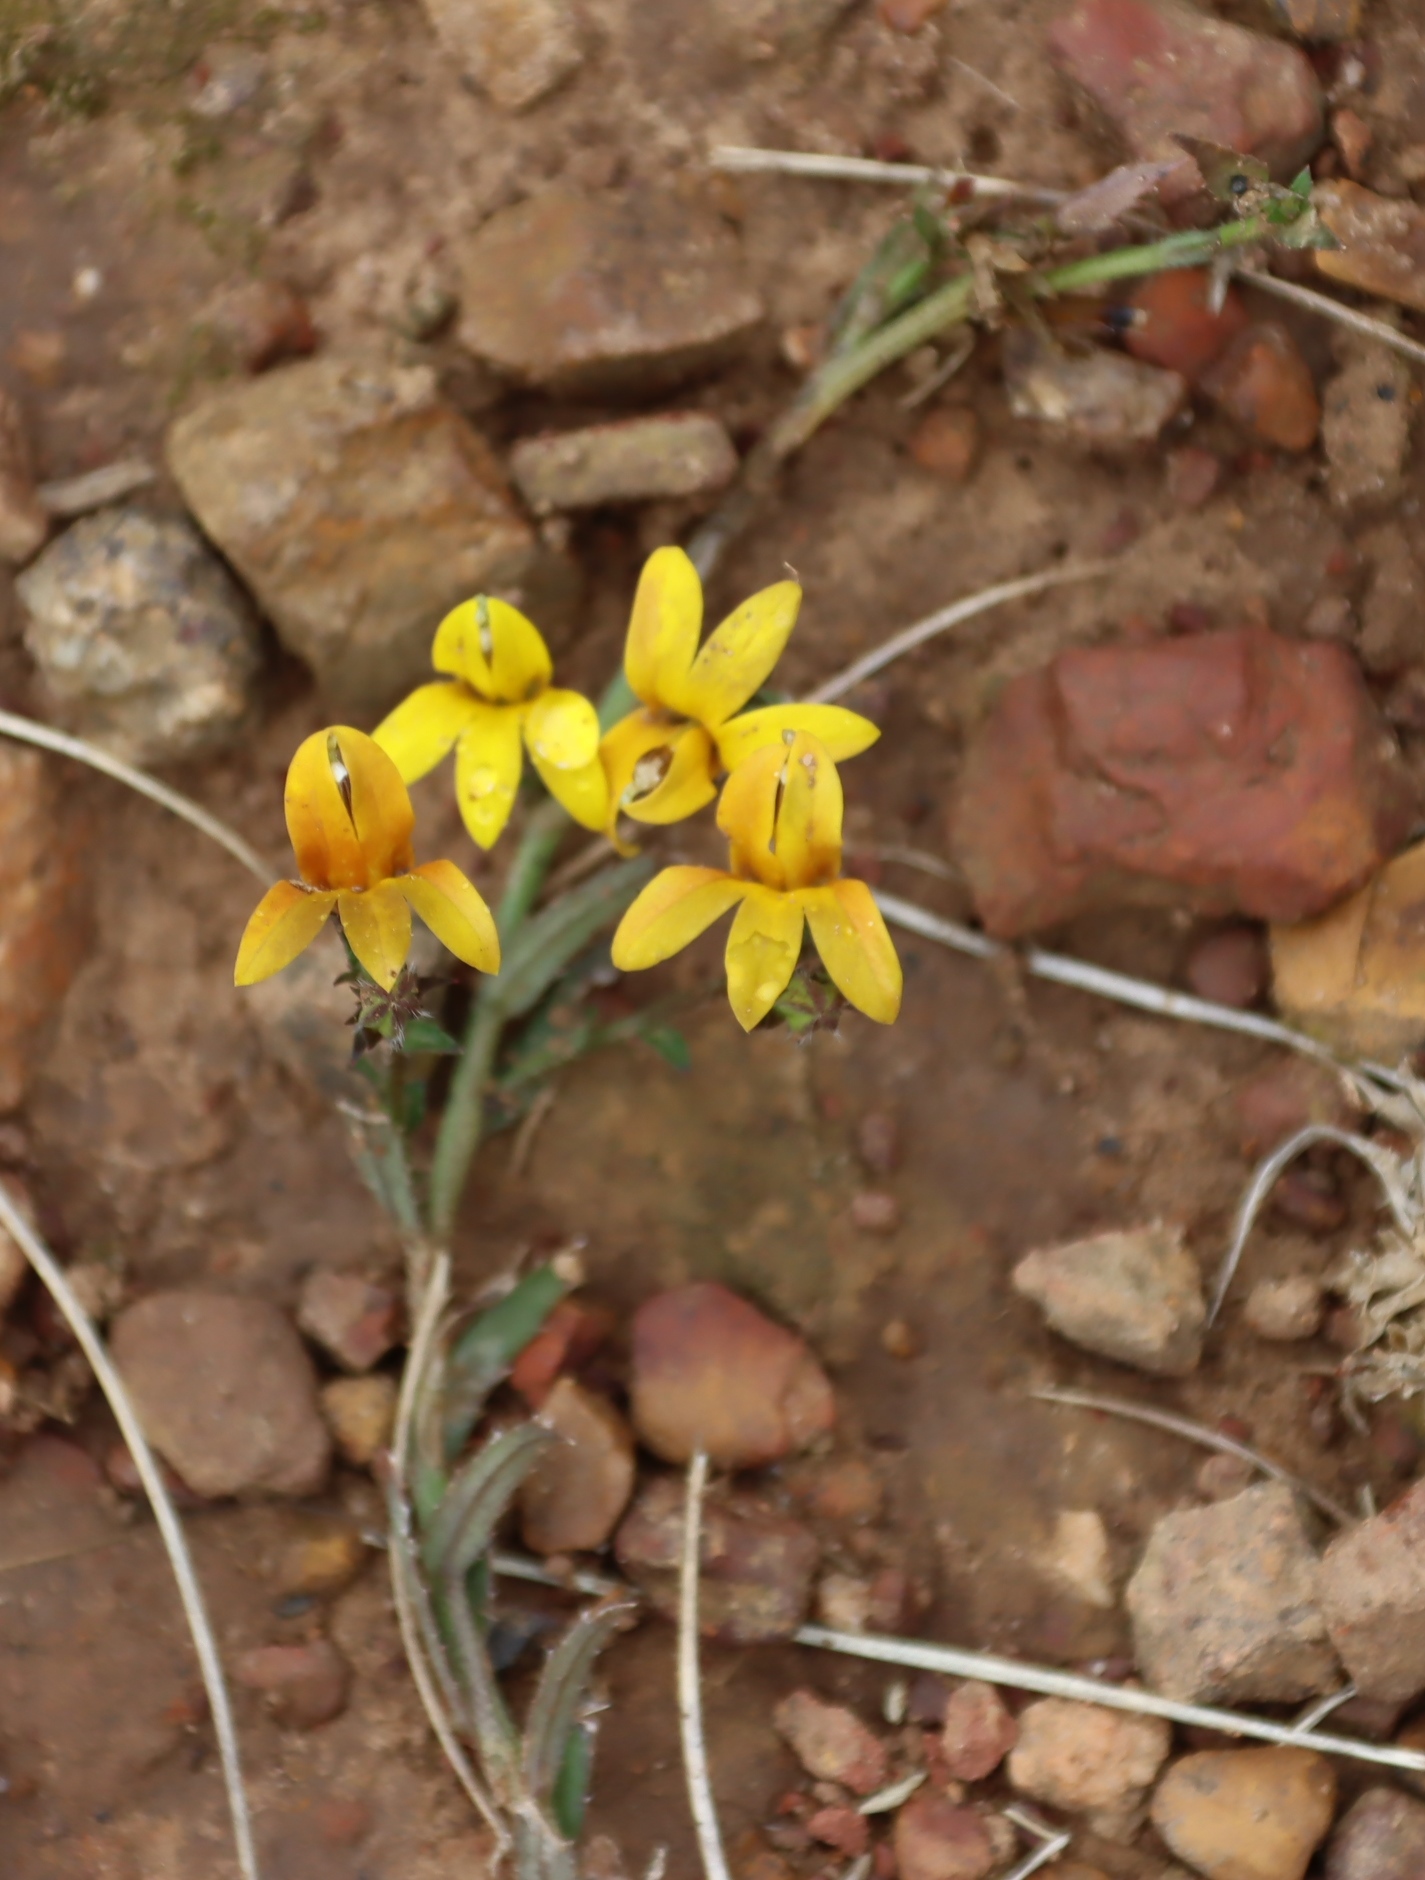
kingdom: Plantae
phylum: Tracheophyta
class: Magnoliopsida
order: Asterales
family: Campanulaceae
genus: Monopsis
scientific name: Monopsis lutea
